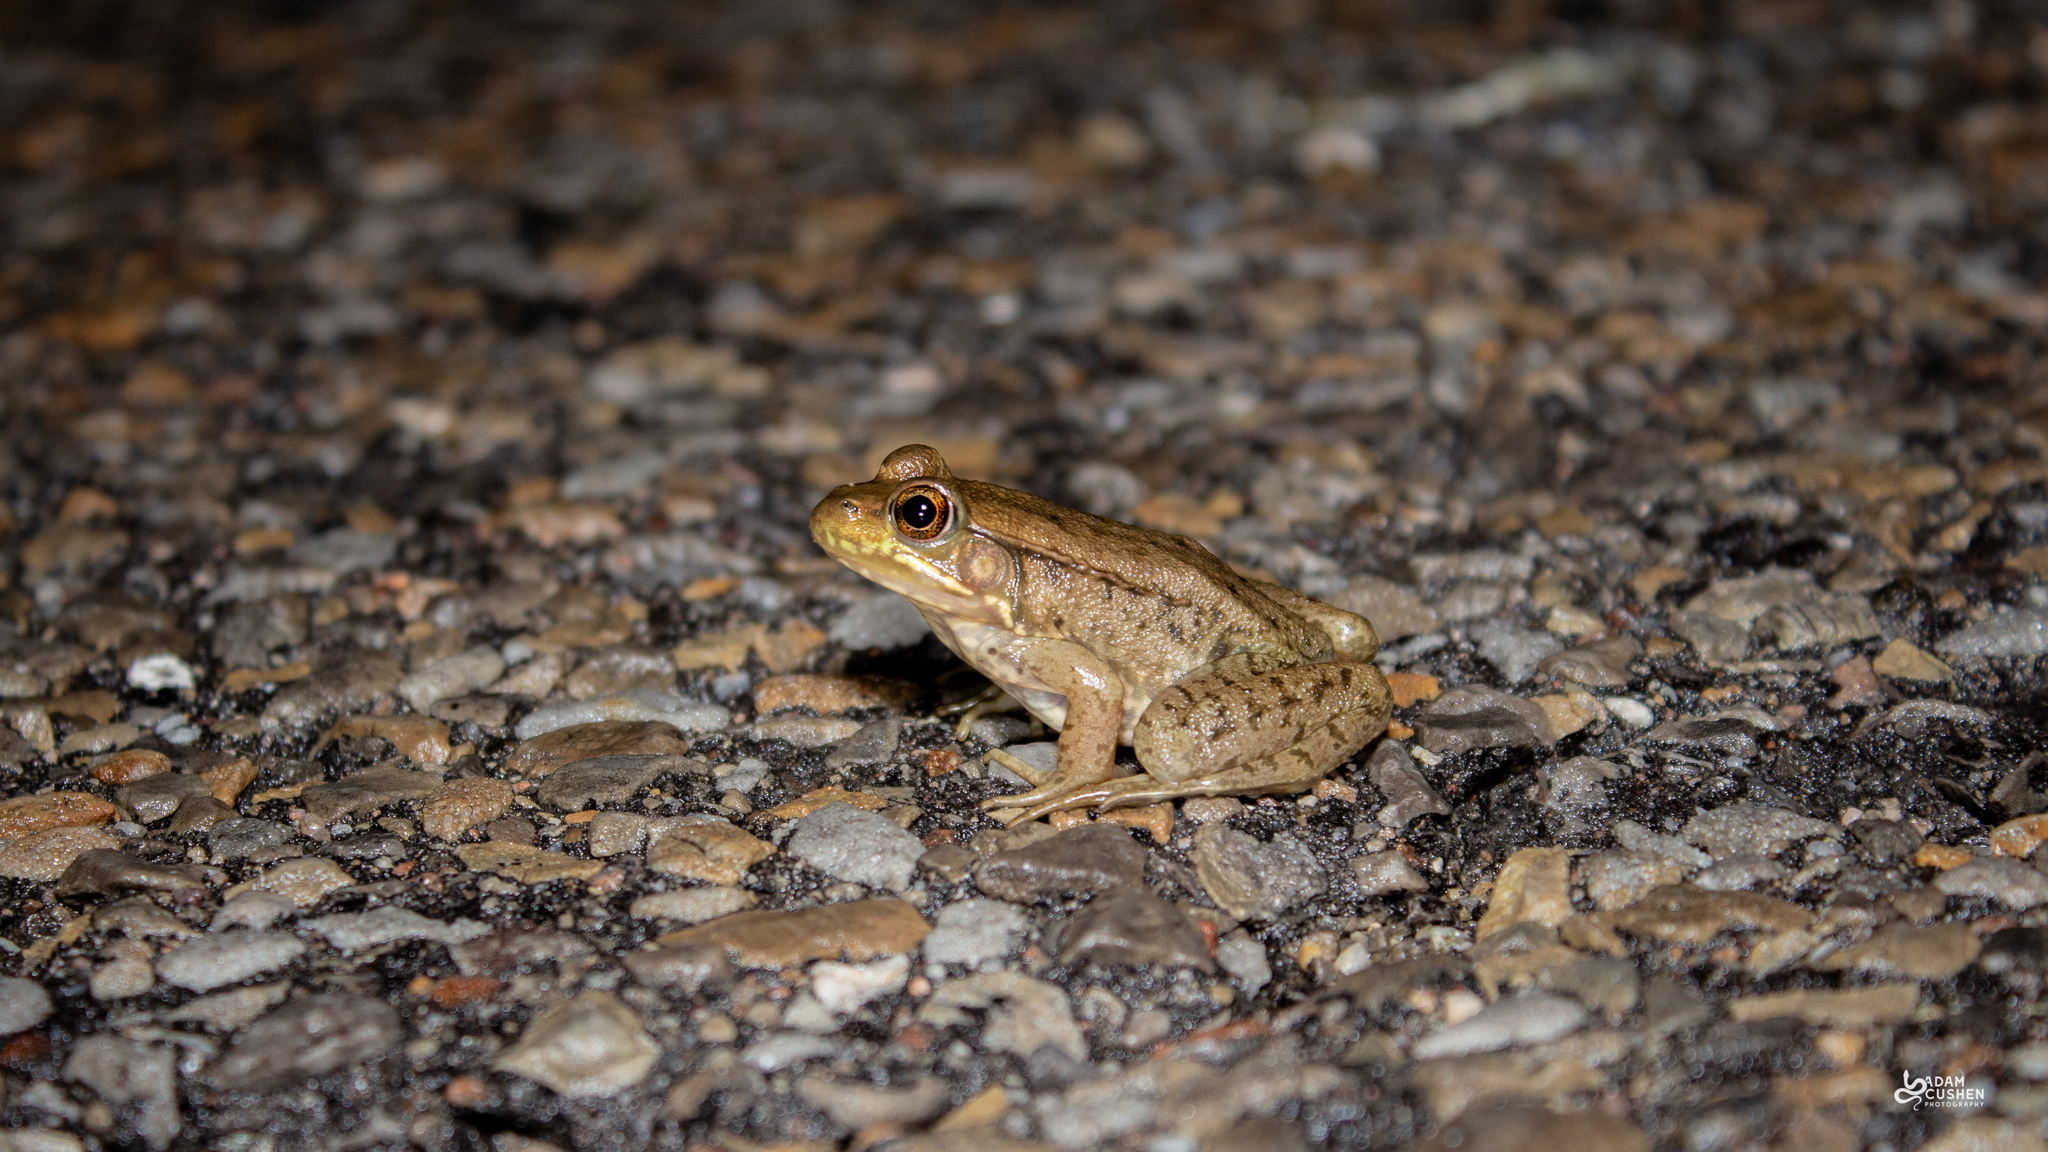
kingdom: Animalia
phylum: Chordata
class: Amphibia
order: Anura
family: Ranidae
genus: Lithobates
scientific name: Lithobates clamitans
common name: Green frog
